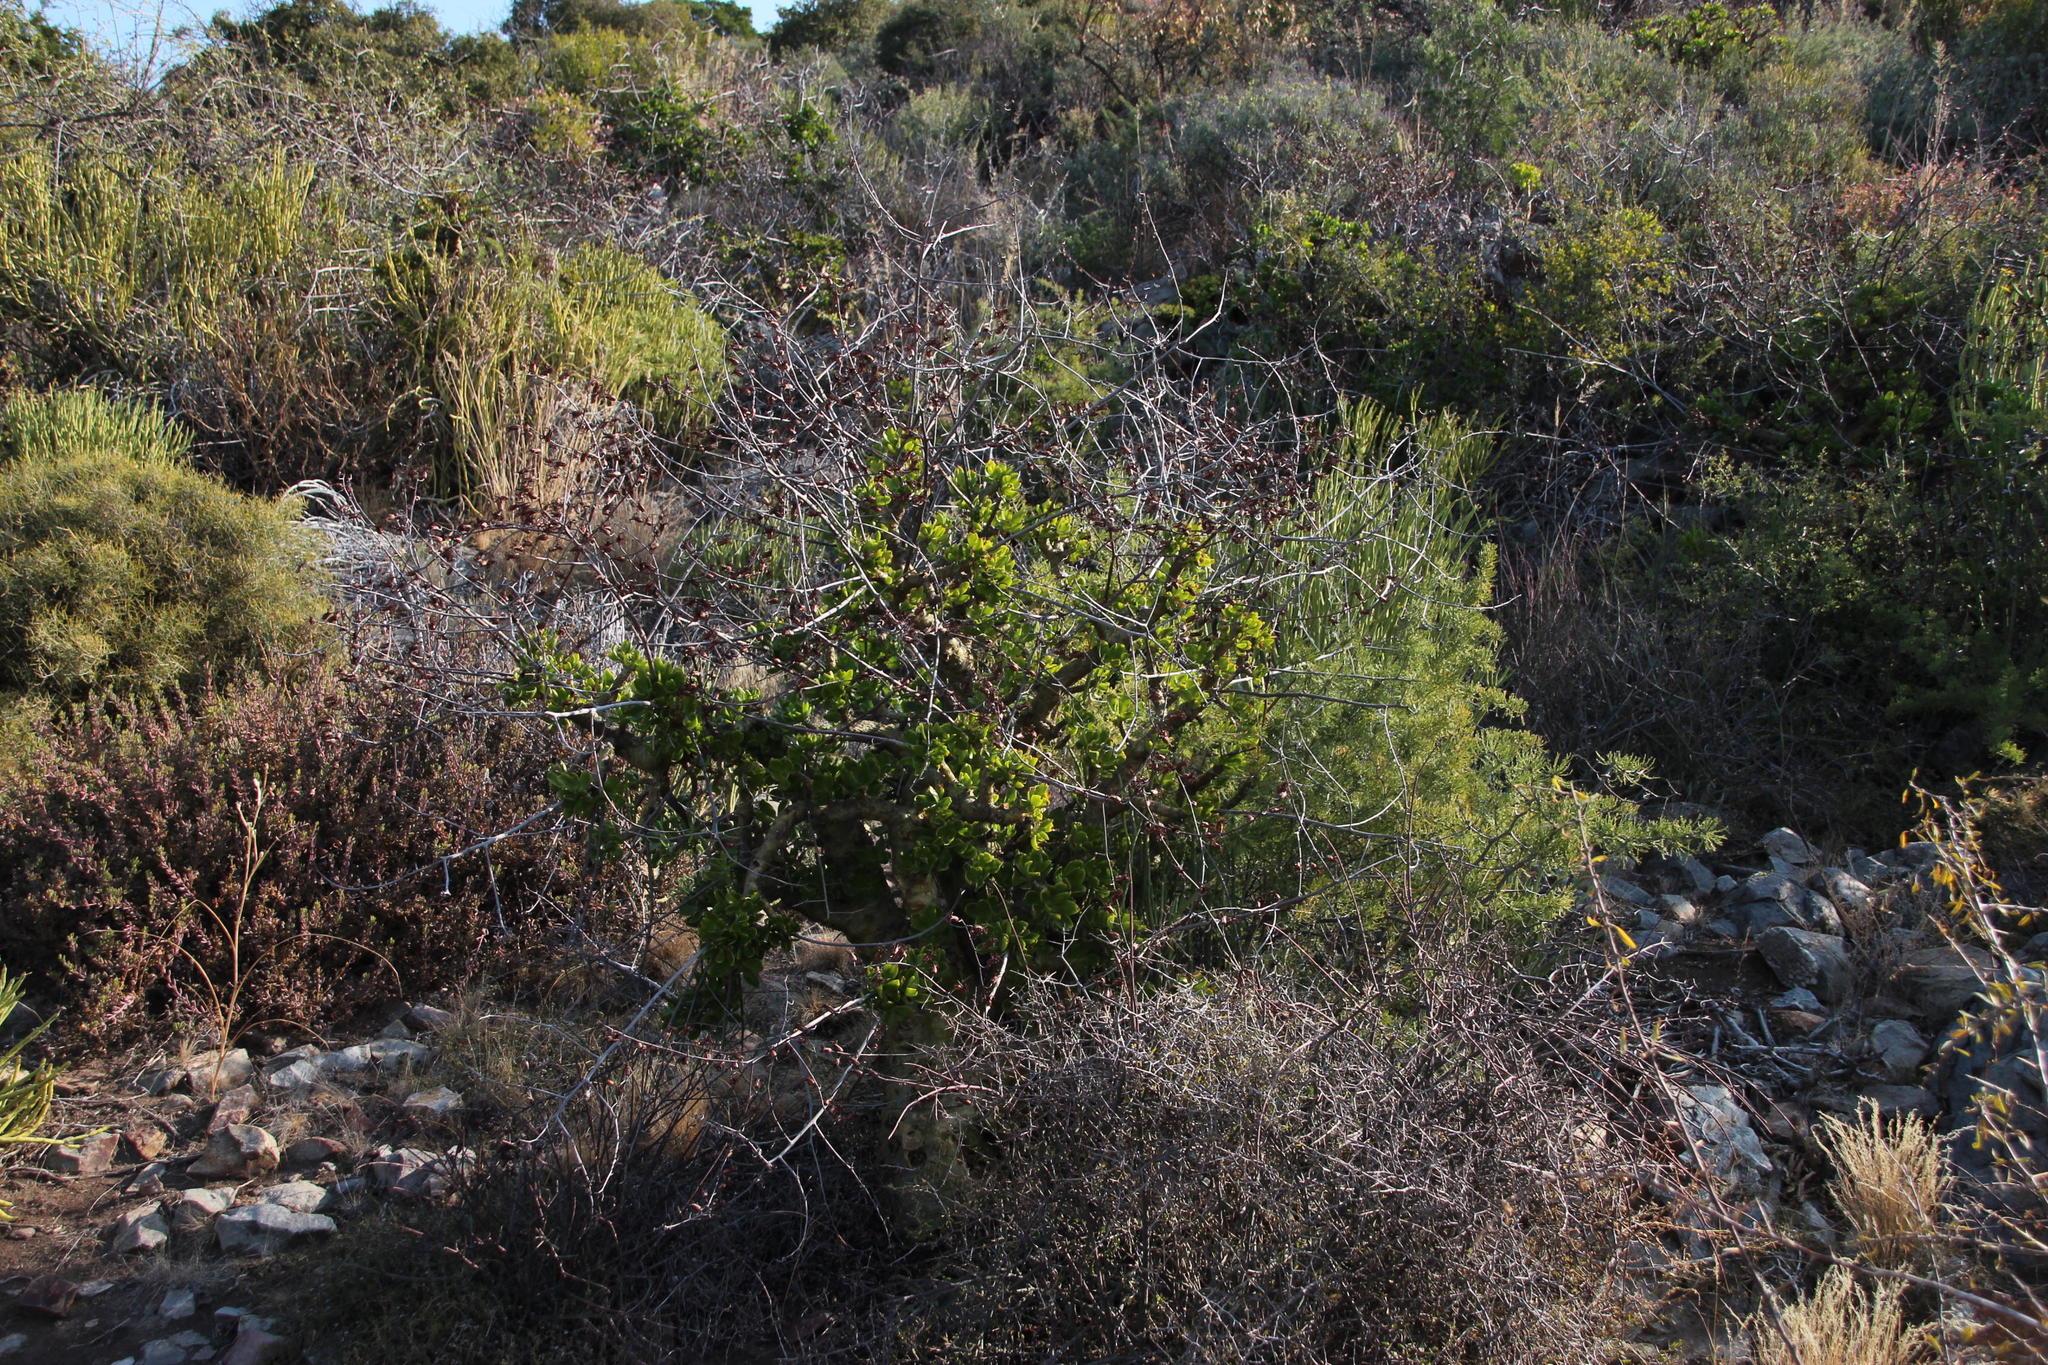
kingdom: Plantae
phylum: Tracheophyta
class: Magnoliopsida
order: Saxifragales
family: Crassulaceae
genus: Tylecodon
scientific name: Tylecodon paniculatus
